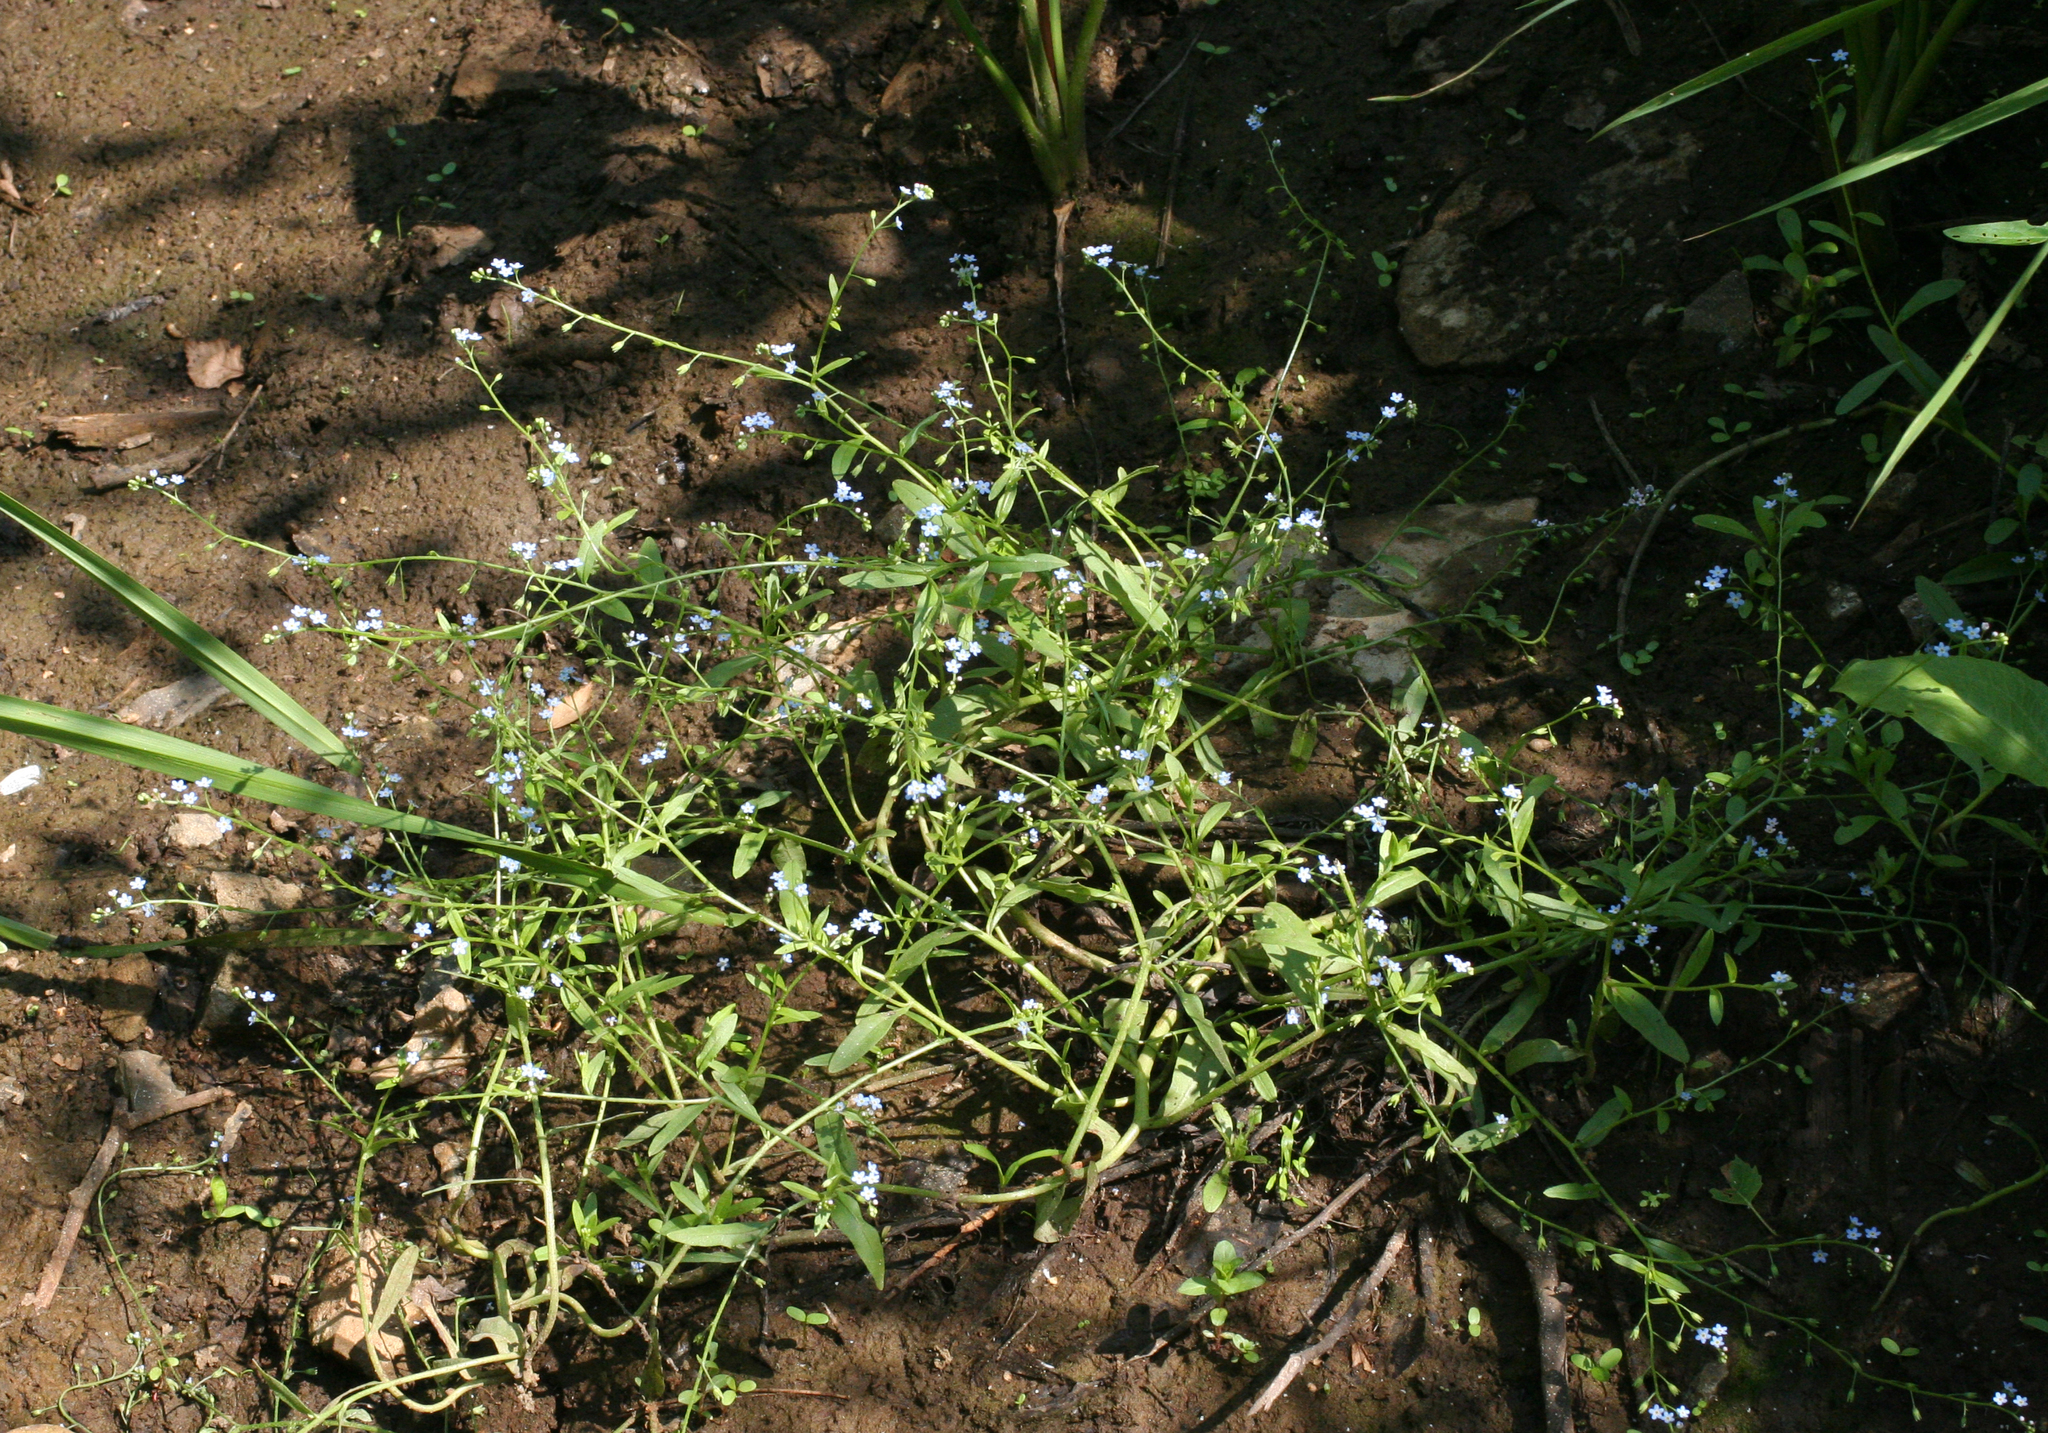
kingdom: Plantae
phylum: Tracheophyta
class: Magnoliopsida
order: Boraginales
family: Boraginaceae
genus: Myosotis
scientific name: Myosotis laxa
